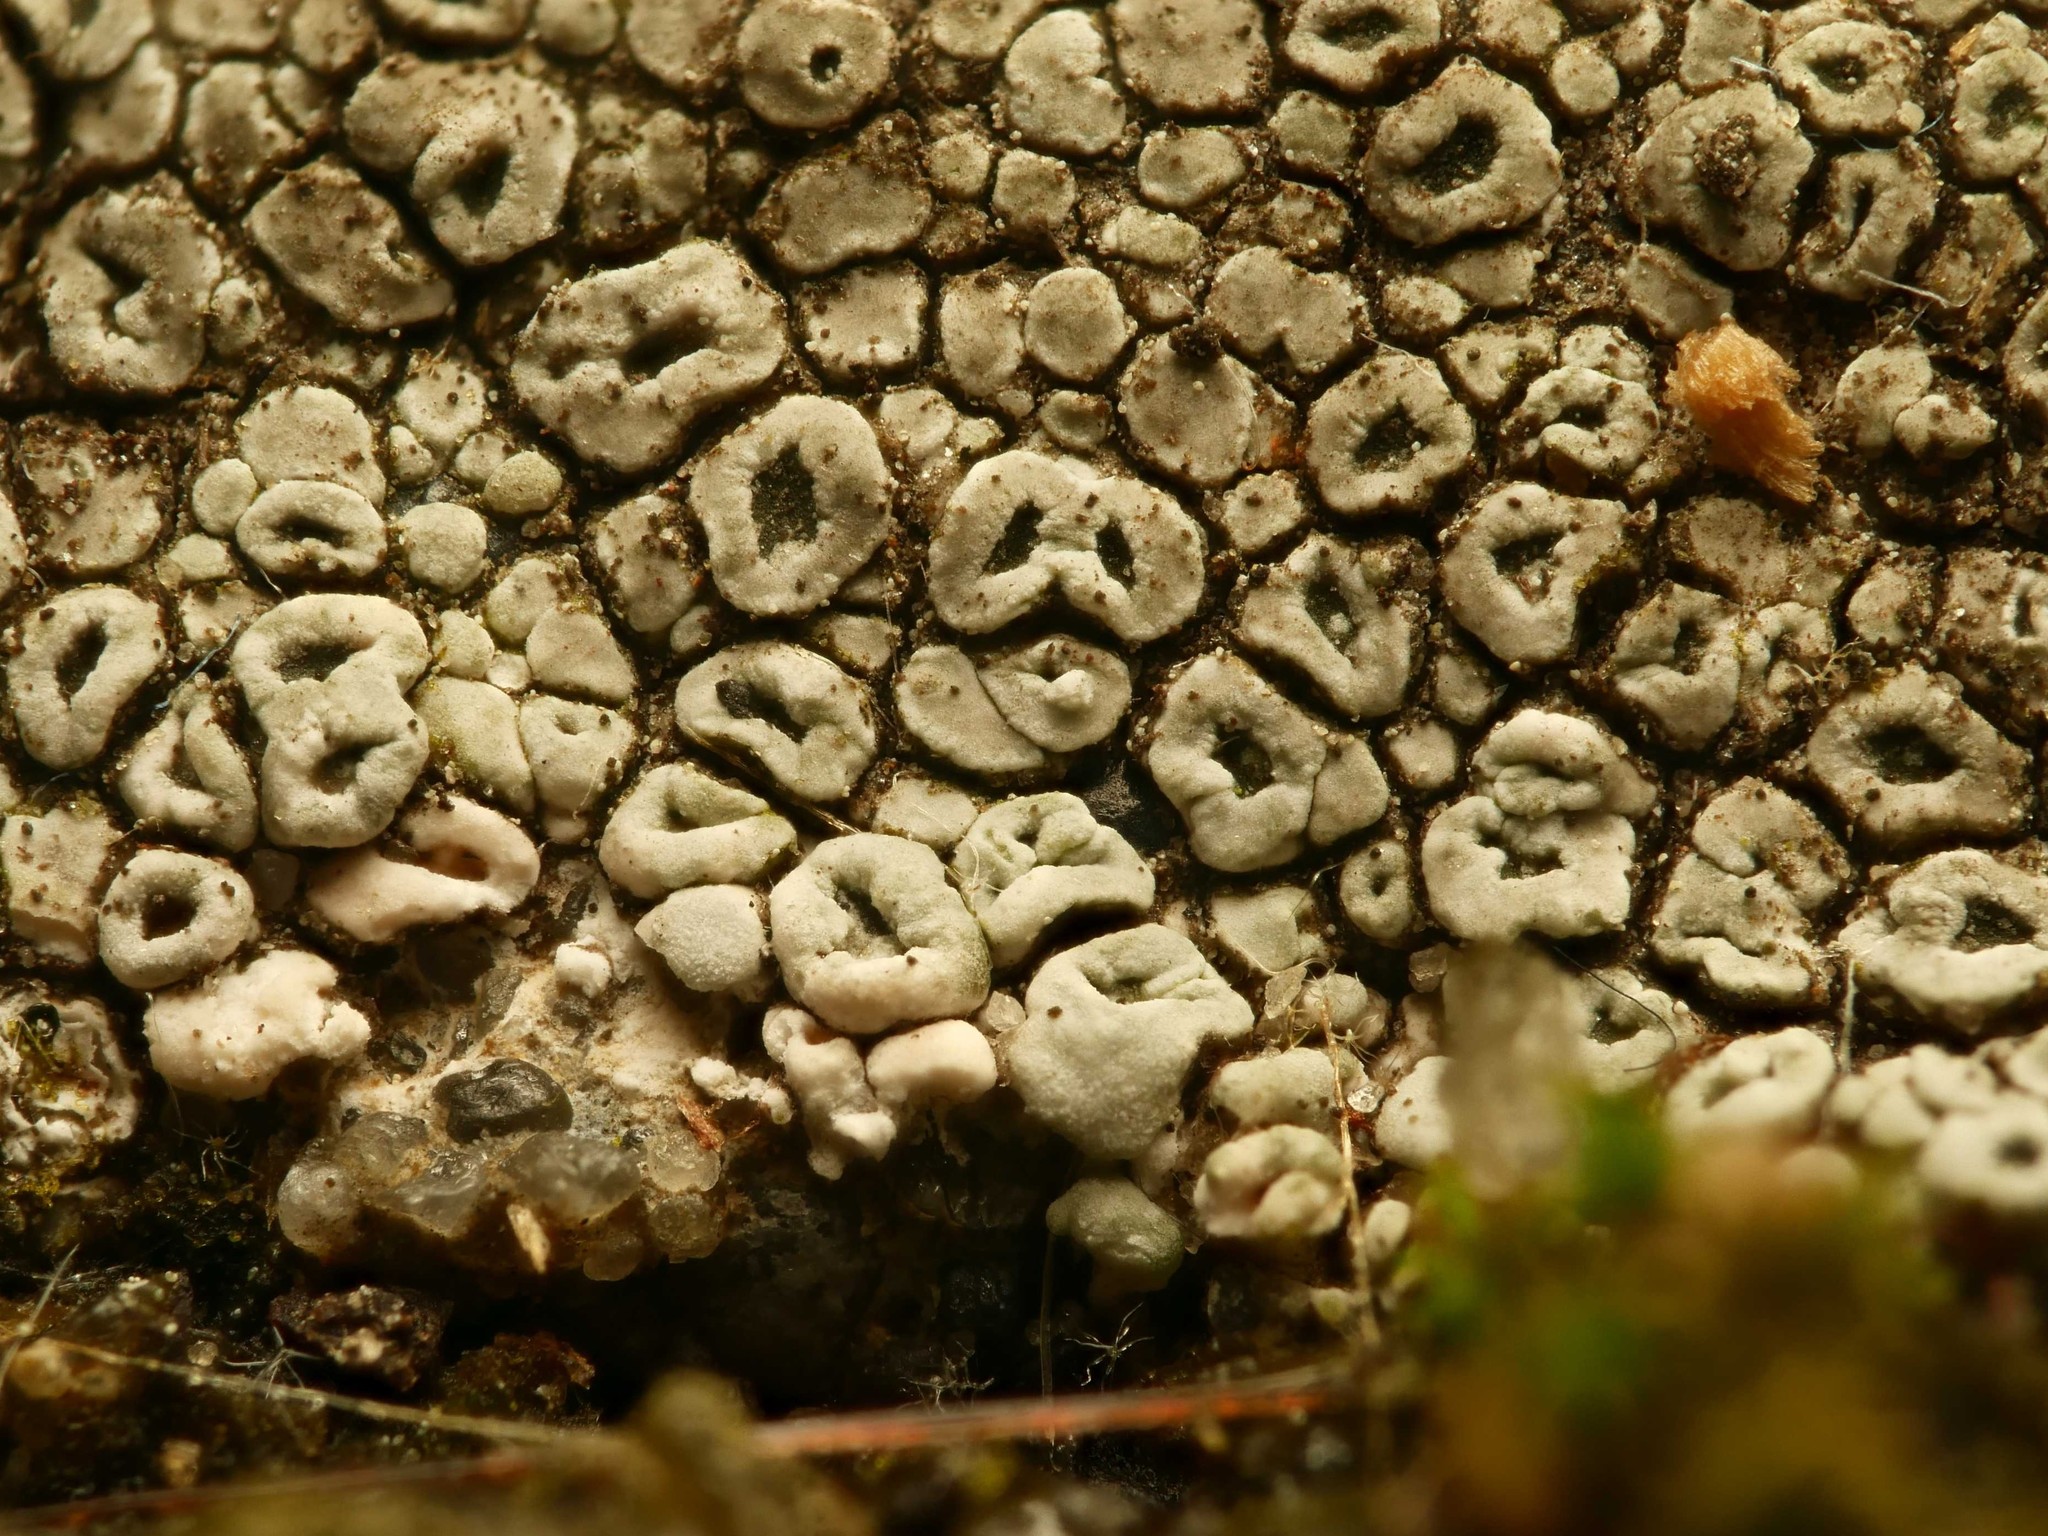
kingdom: Fungi
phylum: Ascomycota
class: Lecanoromycetes
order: Pertusariales
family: Megasporaceae
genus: Circinaria
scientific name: Circinaria contorta
